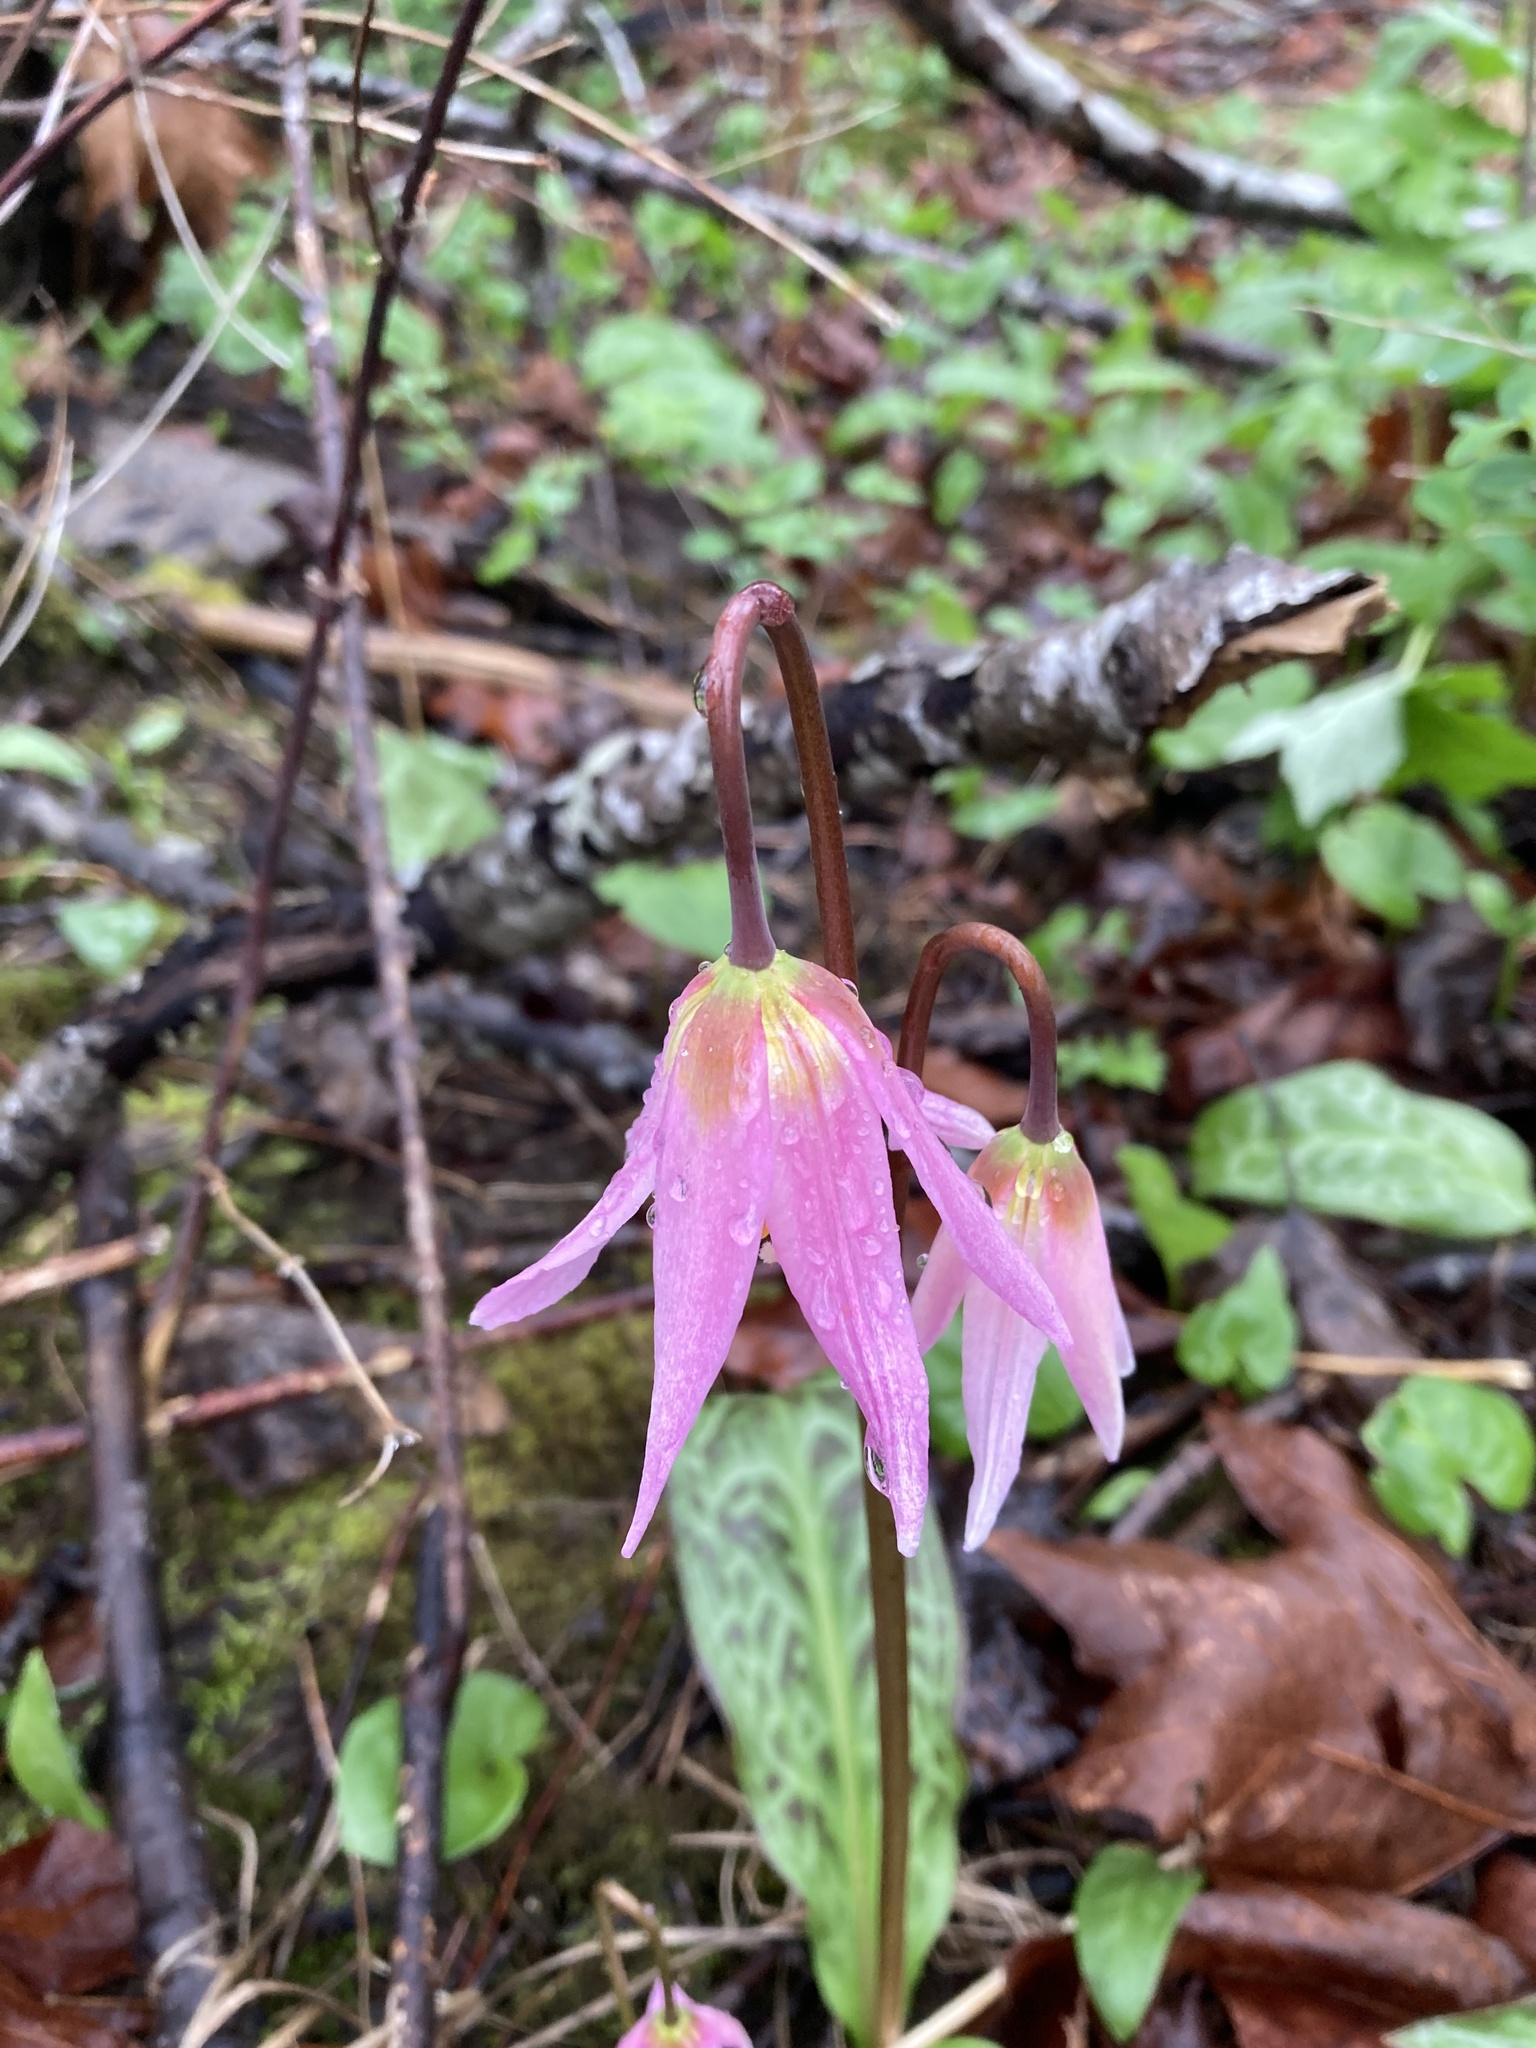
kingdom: Plantae
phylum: Tracheophyta
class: Liliopsida
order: Liliales
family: Liliaceae
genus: Erythronium
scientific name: Erythronium revolutum
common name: Pink fawn-lily
